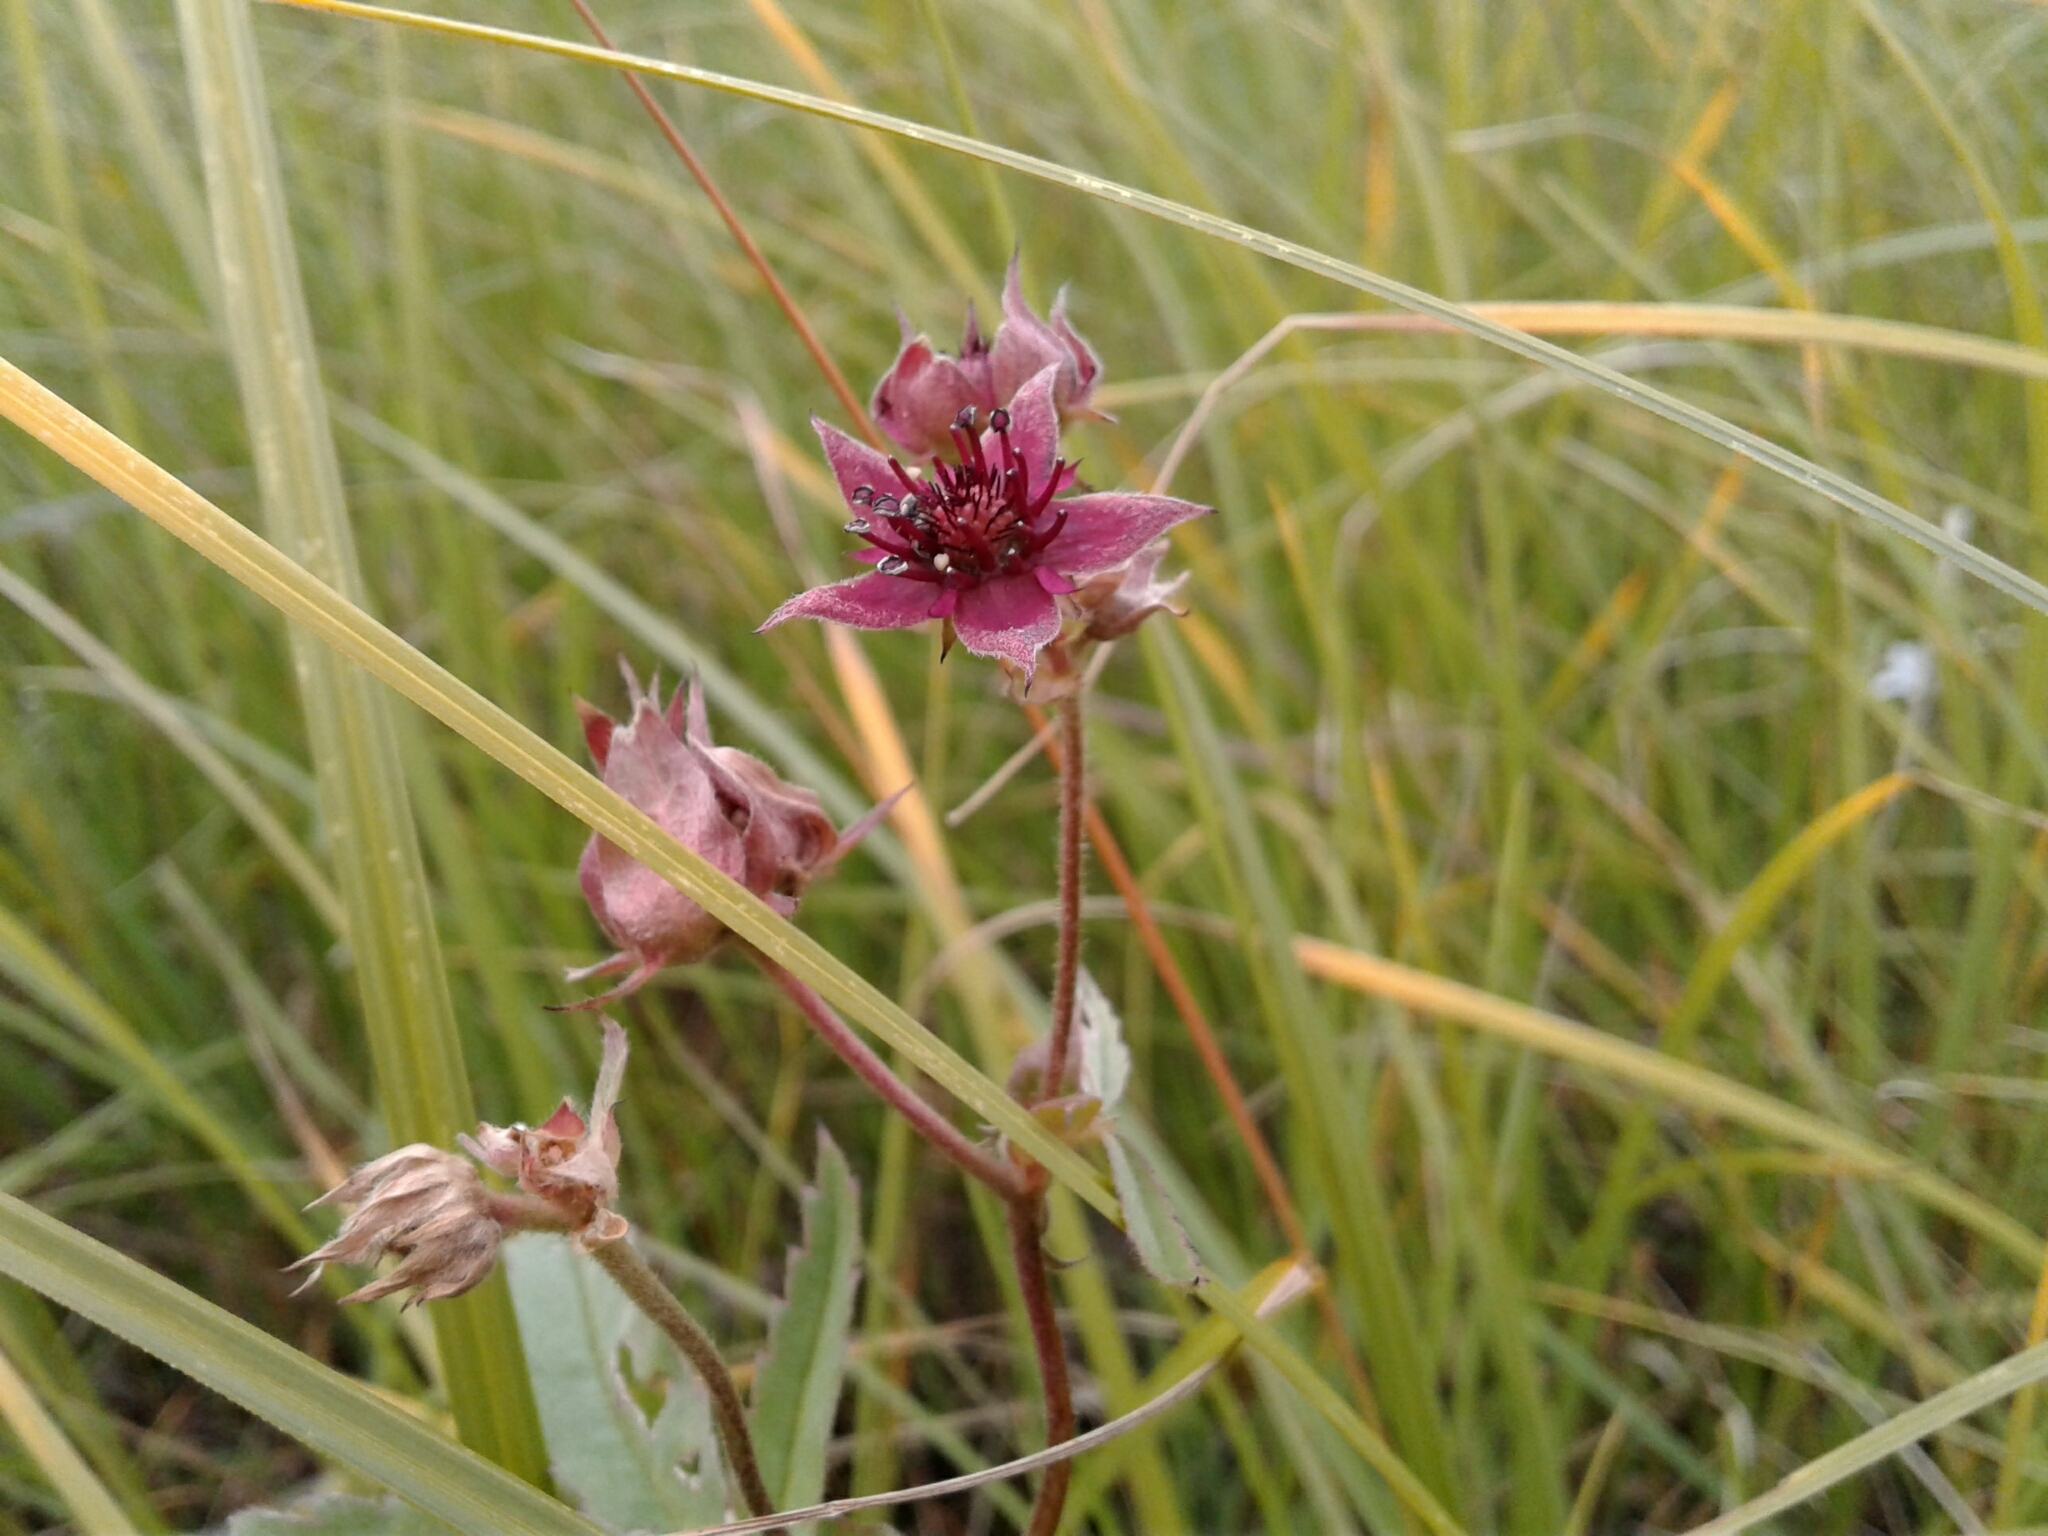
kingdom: Plantae
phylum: Tracheophyta
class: Magnoliopsida
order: Rosales
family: Rosaceae
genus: Comarum
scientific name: Comarum palustre
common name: Marsh cinquefoil
